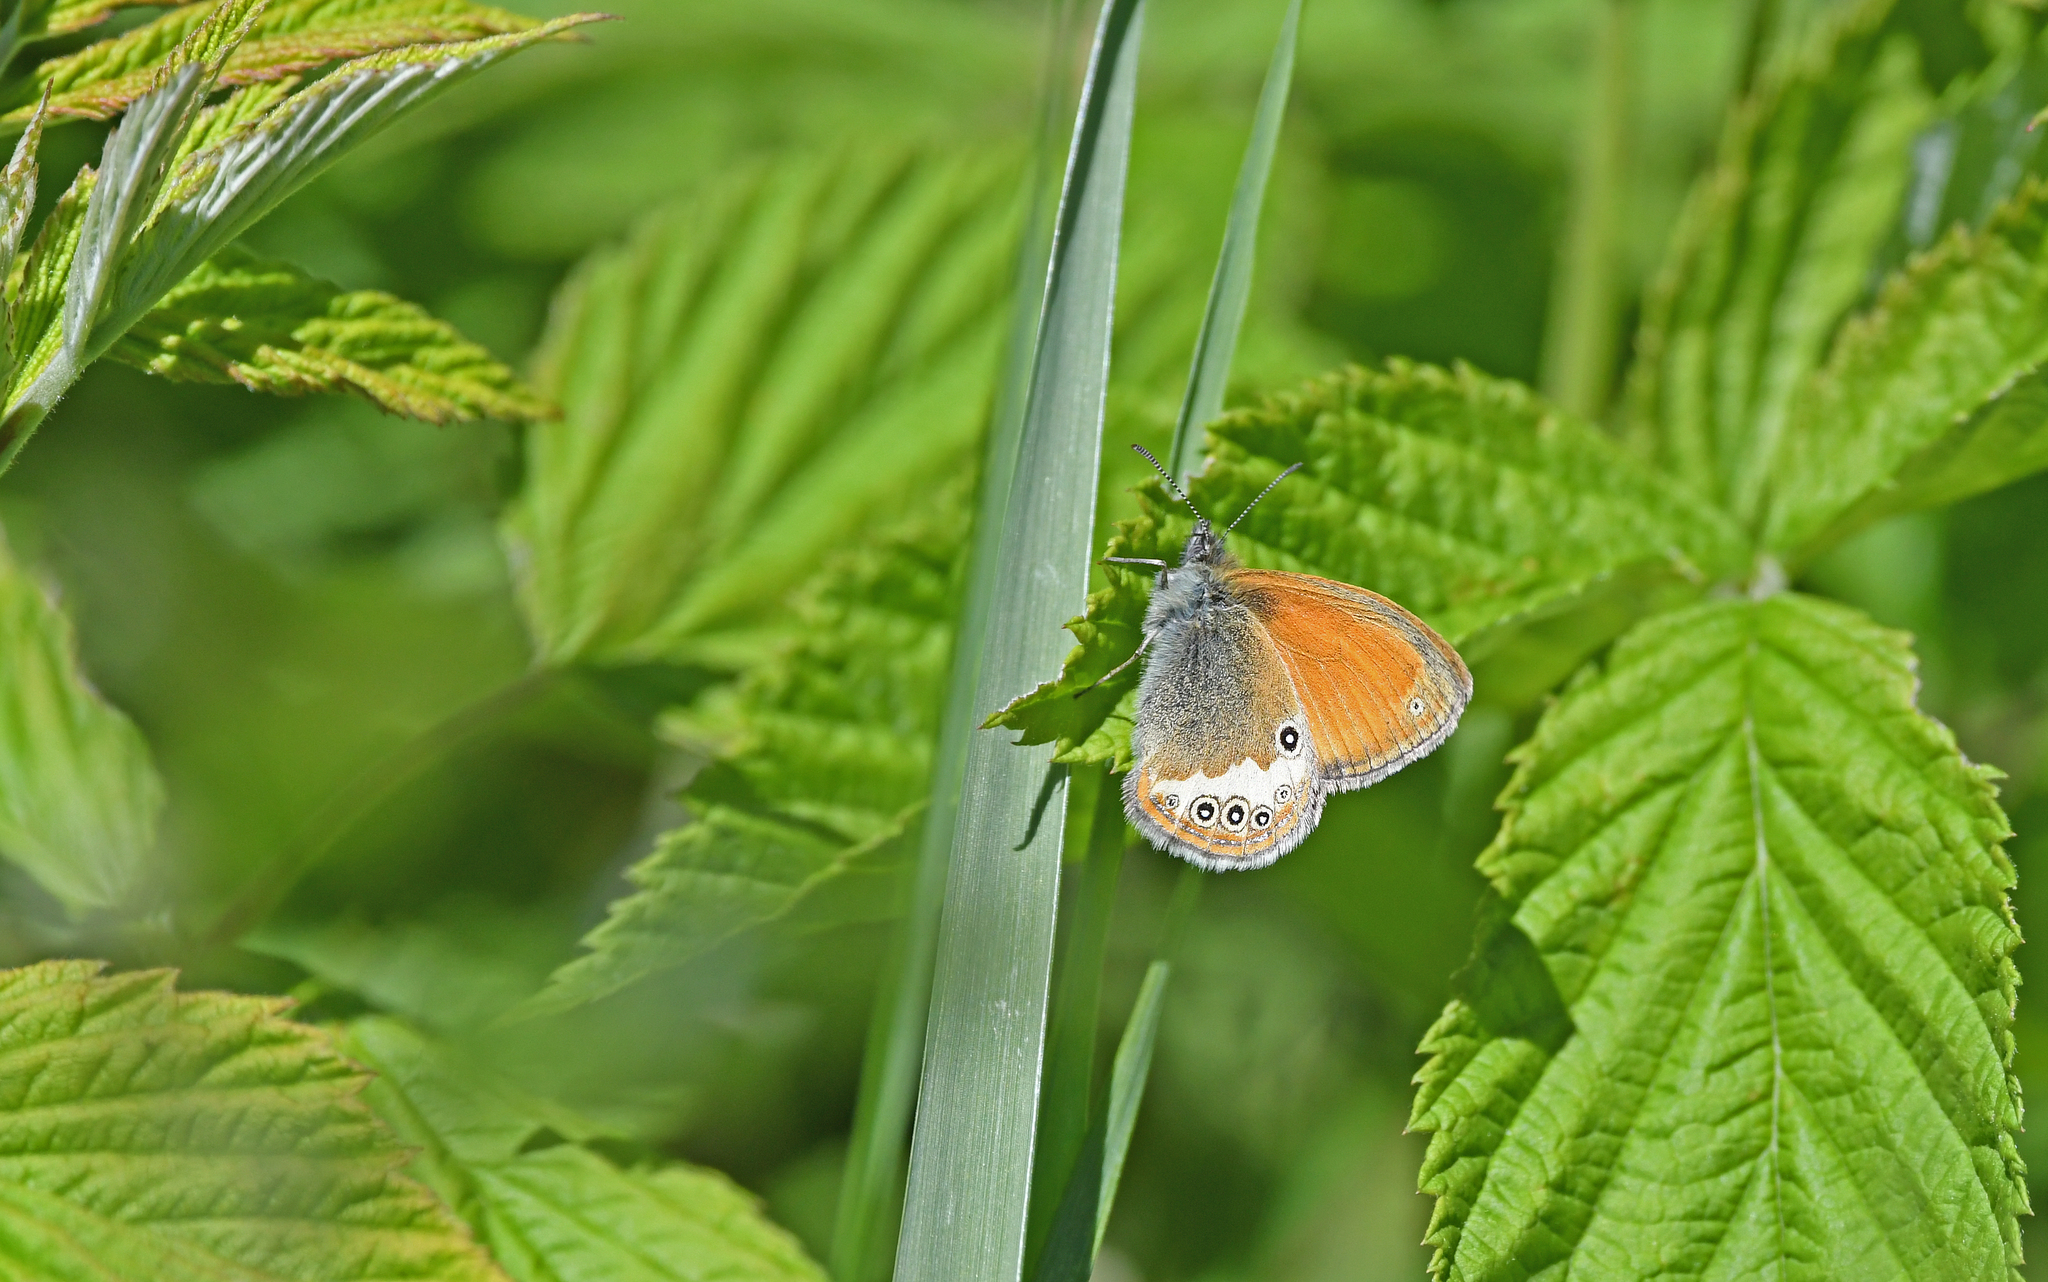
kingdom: Animalia
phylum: Arthropoda
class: Insecta
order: Lepidoptera
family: Nymphalidae
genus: Coenonympha
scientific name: Coenonympha arcania
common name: Pearly heath
